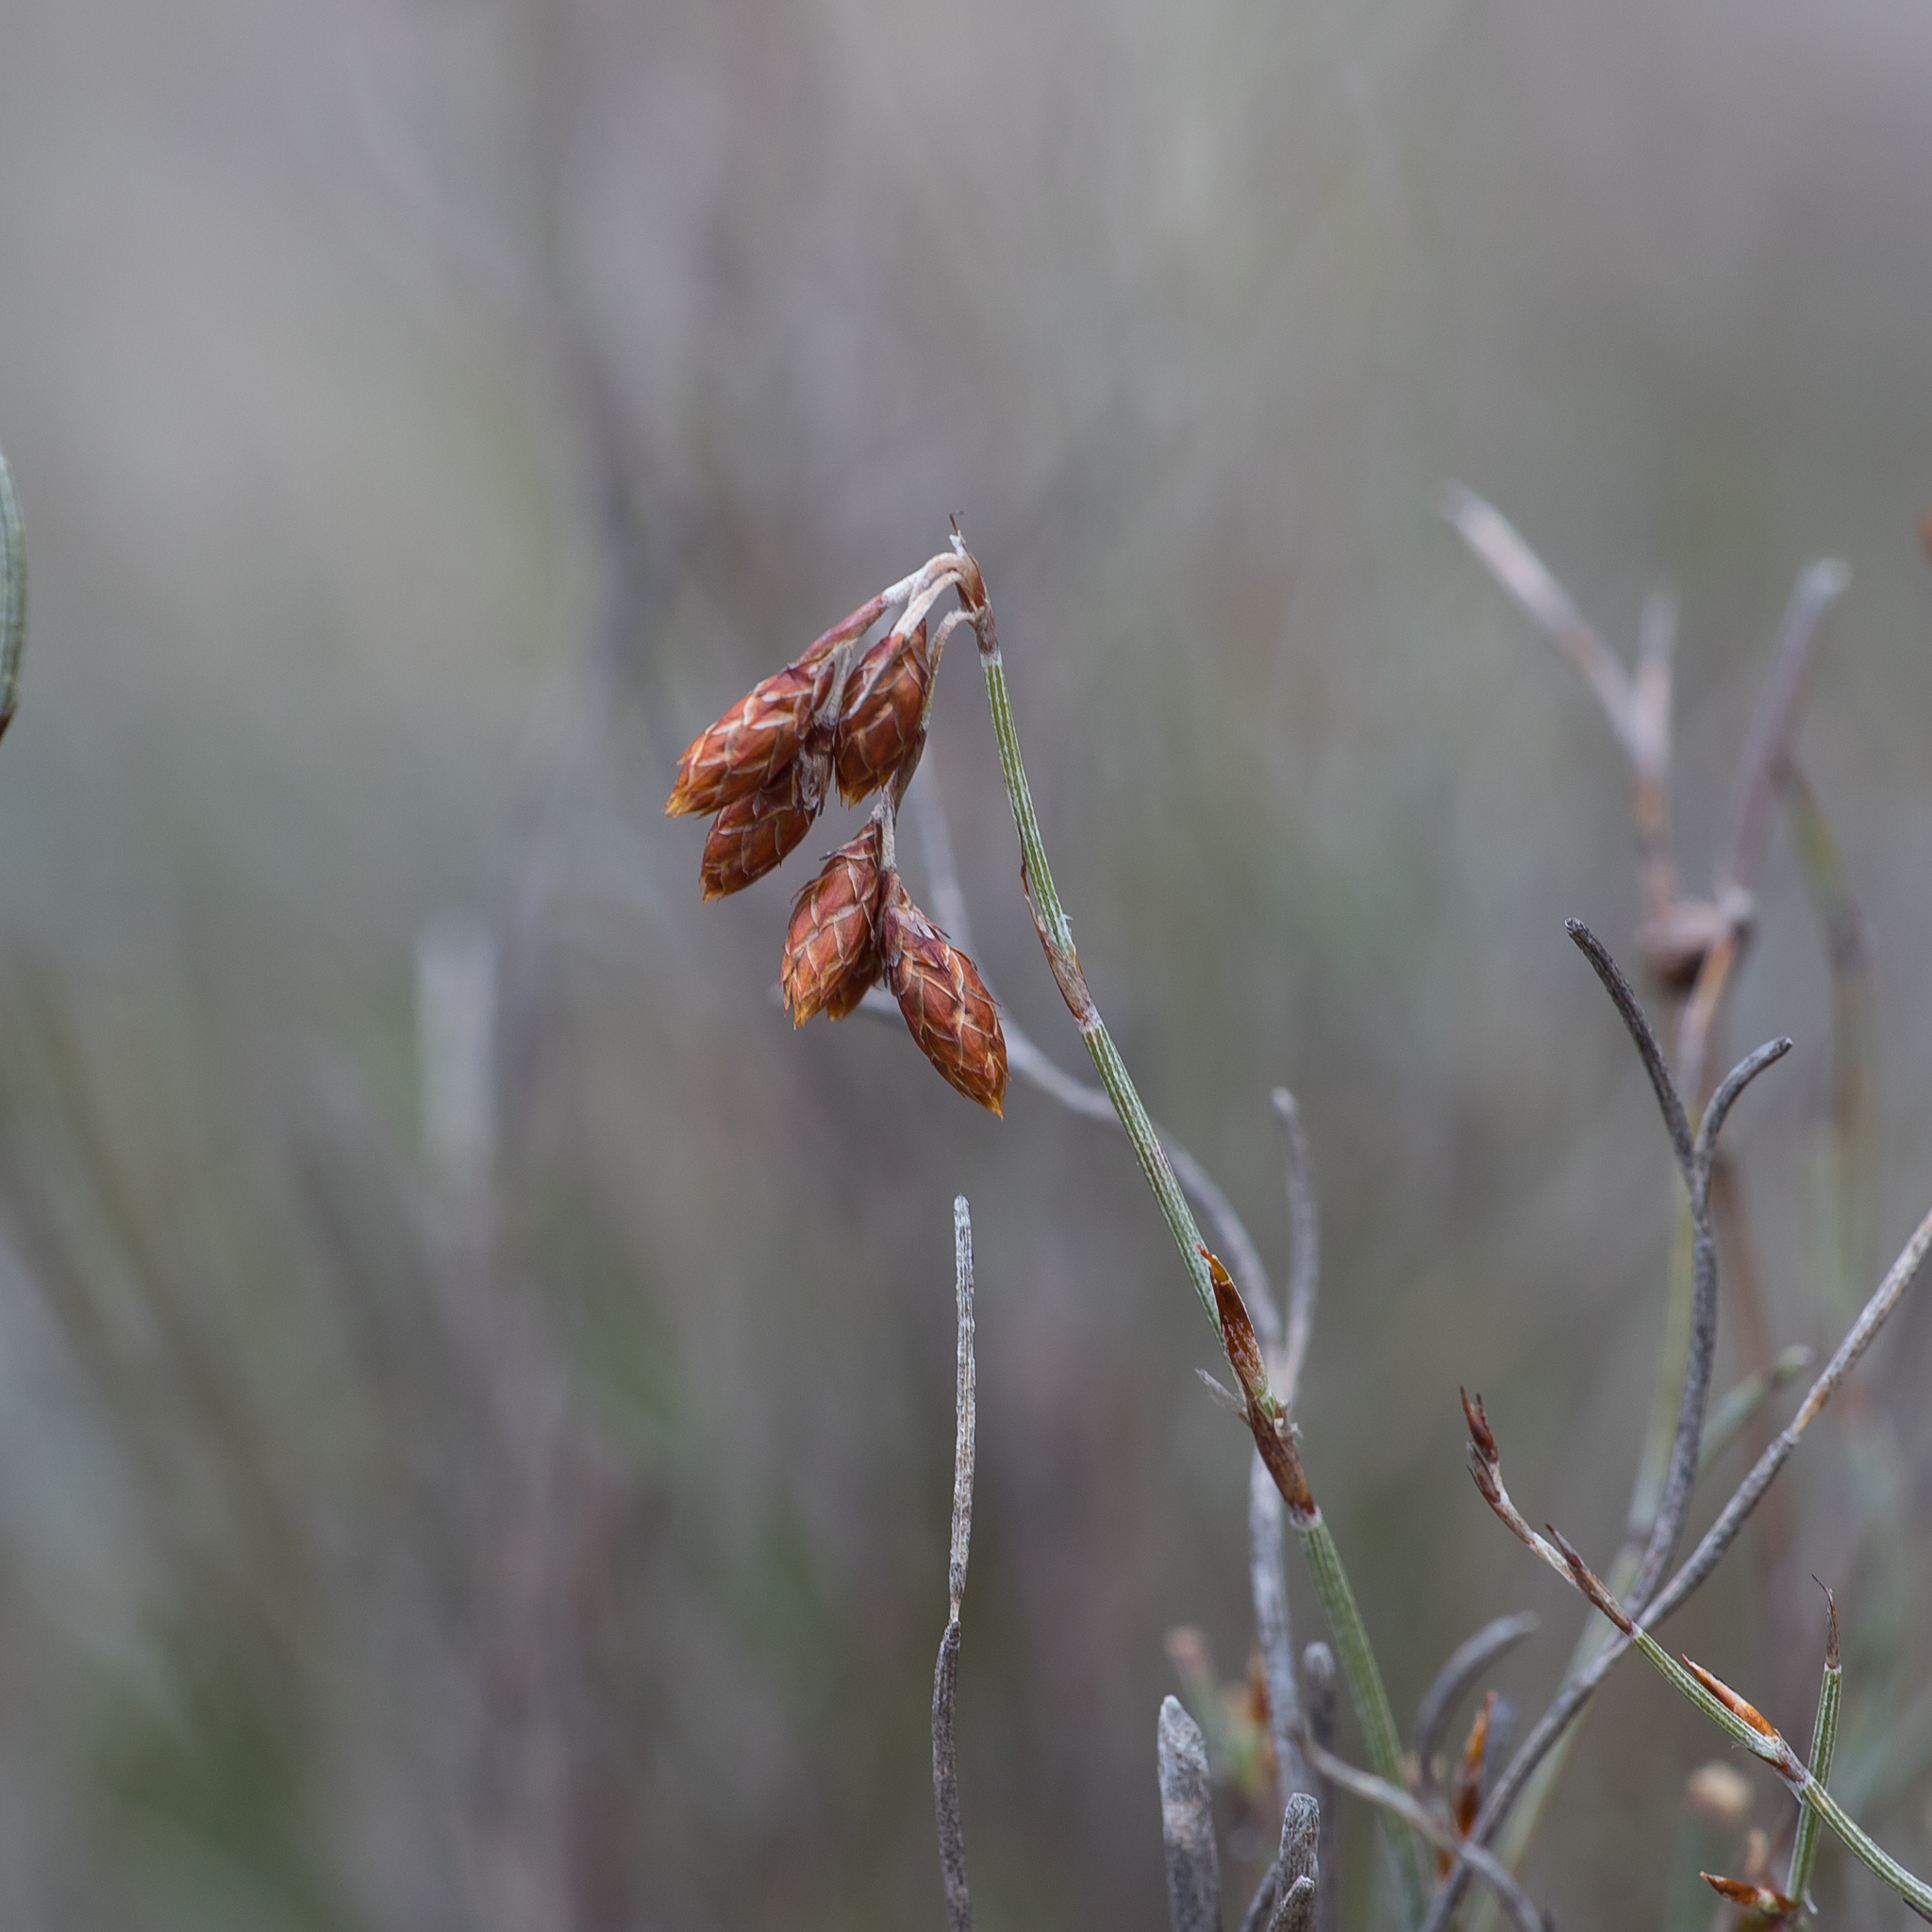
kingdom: Plantae
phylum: Tracheophyta
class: Liliopsida
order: Poales
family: Restionaceae
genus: Hypolaena
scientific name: Hypolaena fastigiata
